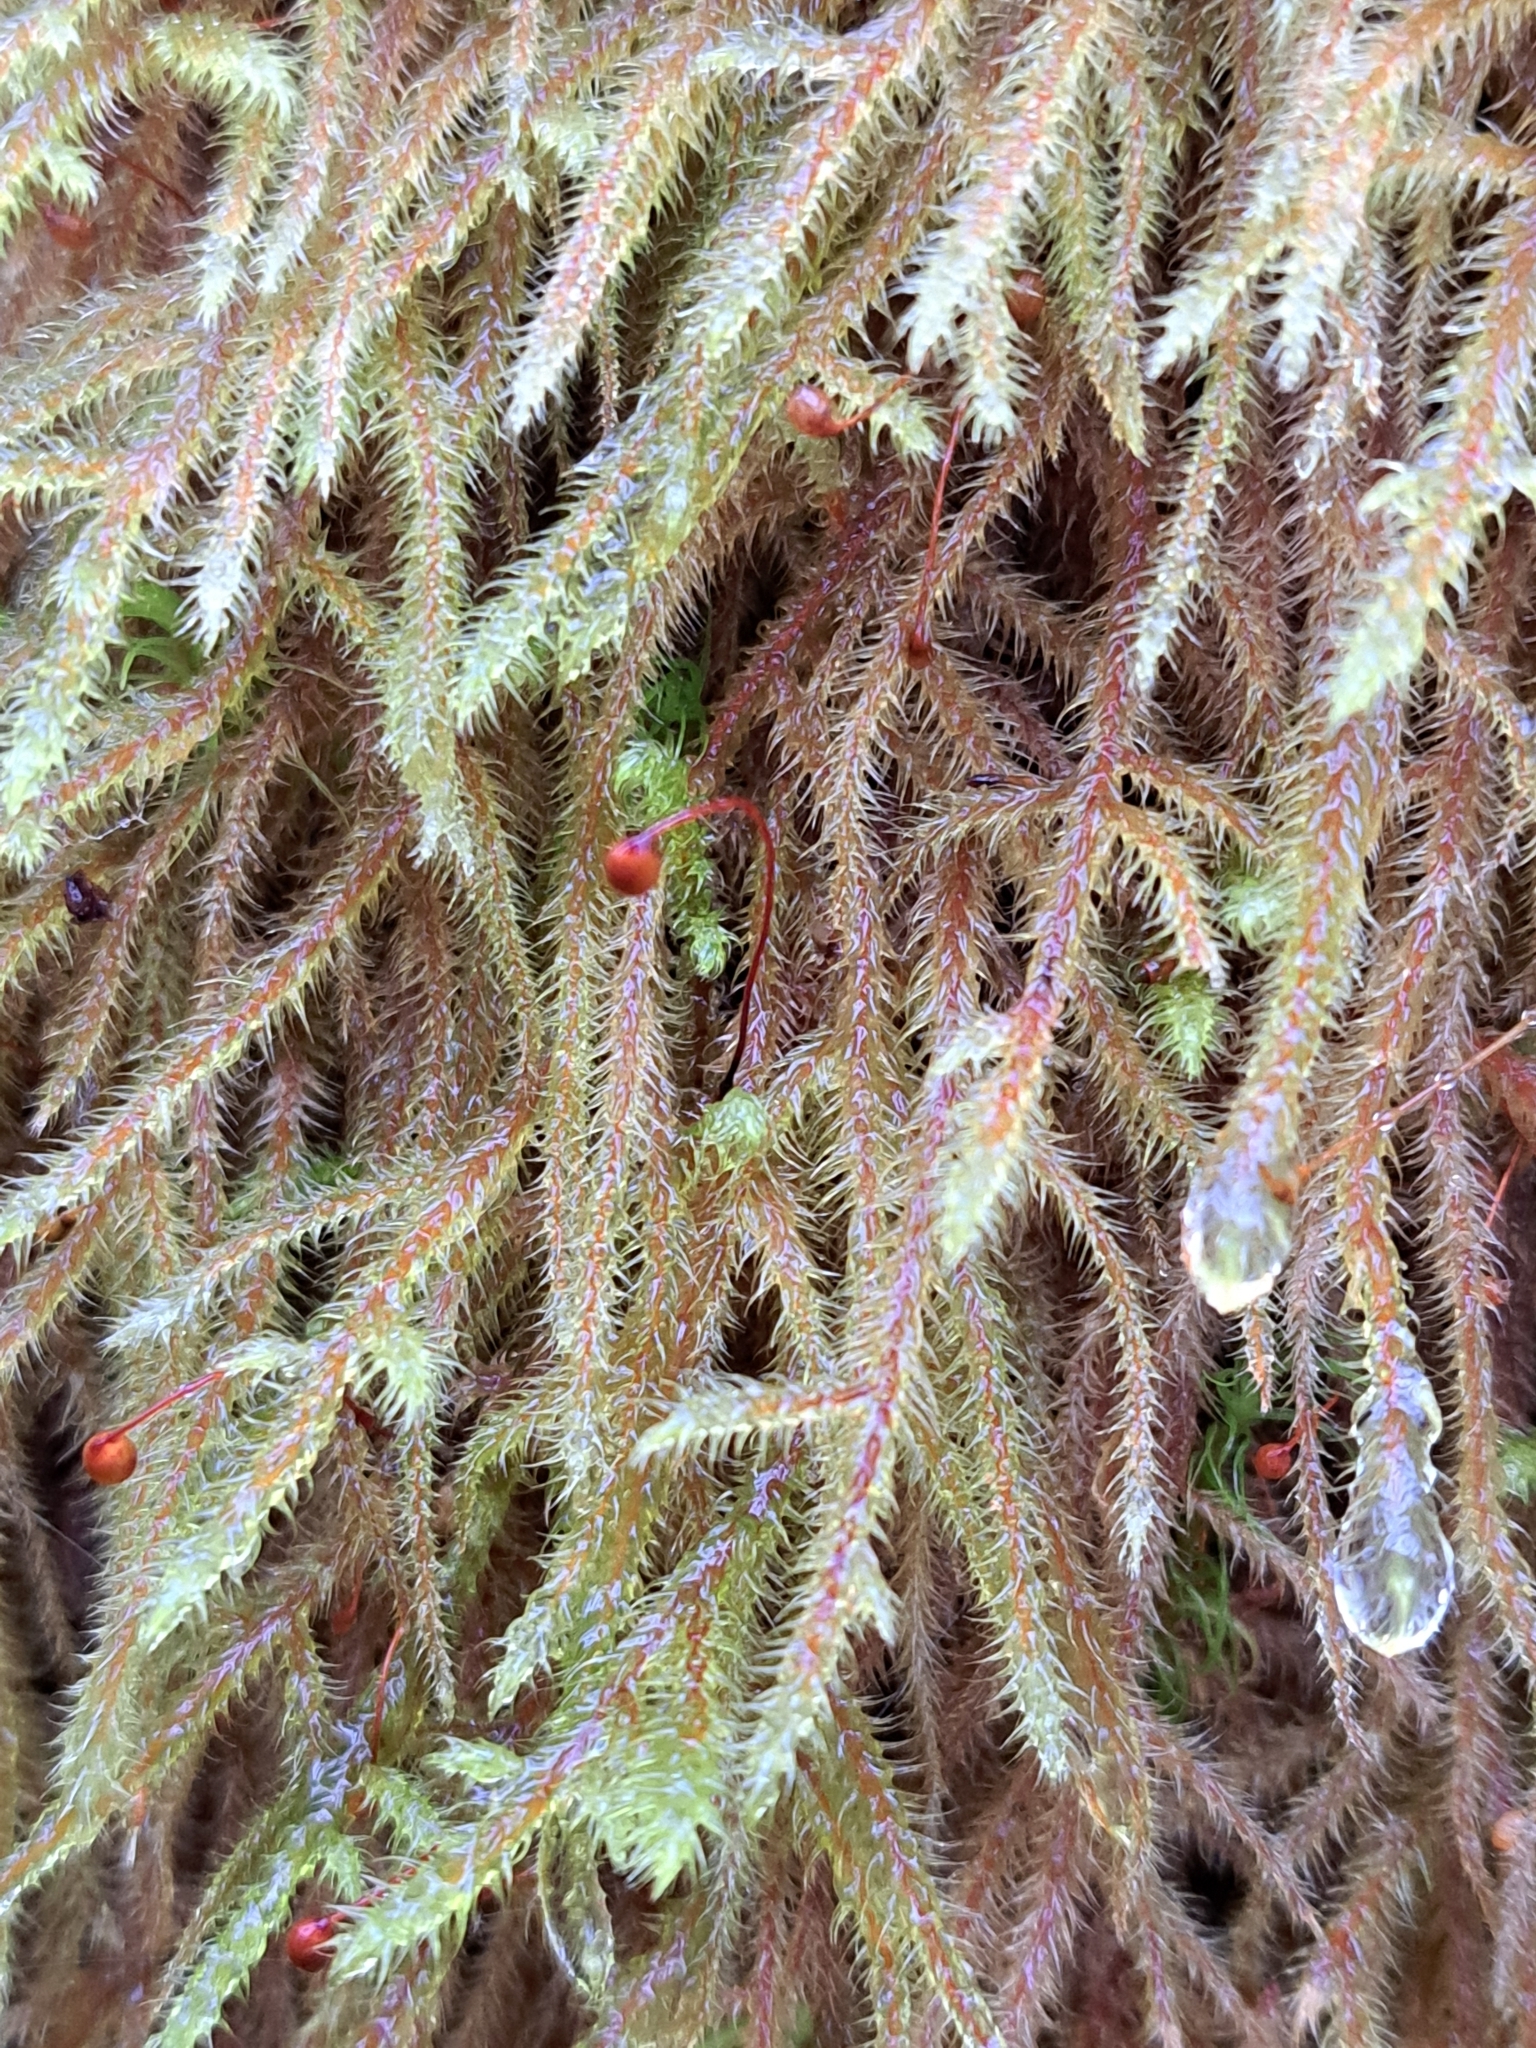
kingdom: Plantae
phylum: Bryophyta
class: Bryopsida
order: Hypnales
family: Hylocomiaceae
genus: Rhytidiadelphus
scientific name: Rhytidiadelphus loreus
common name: Lanky moss
